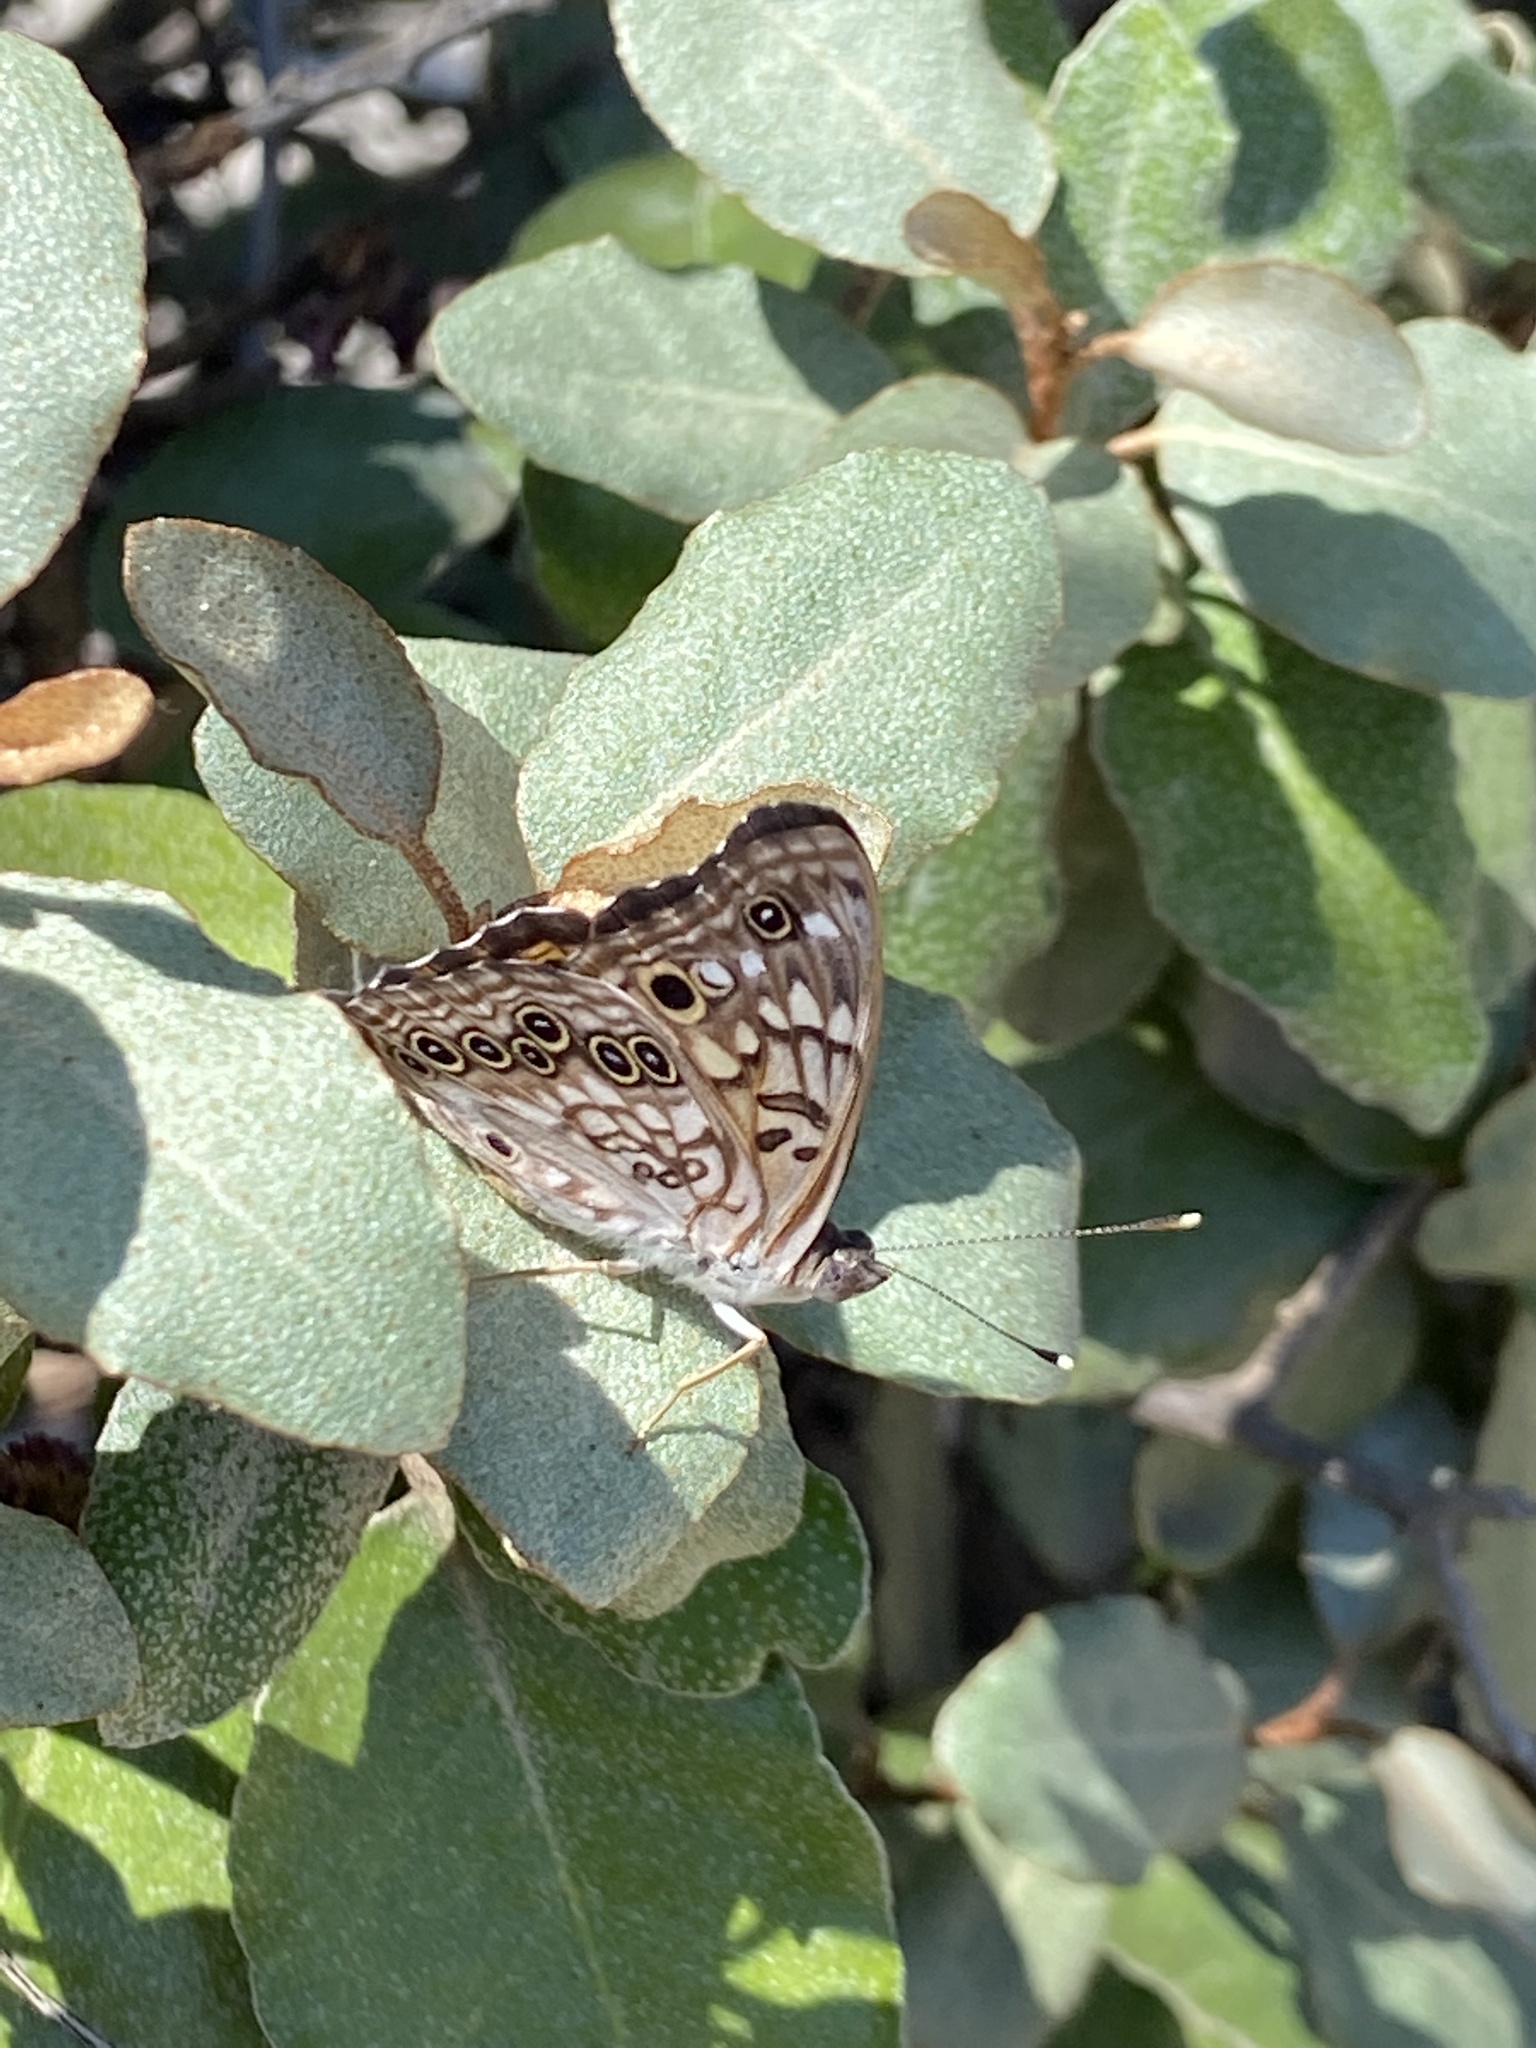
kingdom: Animalia
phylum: Arthropoda
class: Insecta
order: Lepidoptera
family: Nymphalidae
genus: Asterocampa
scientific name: Asterocampa celtis
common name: Hackberry emperor
